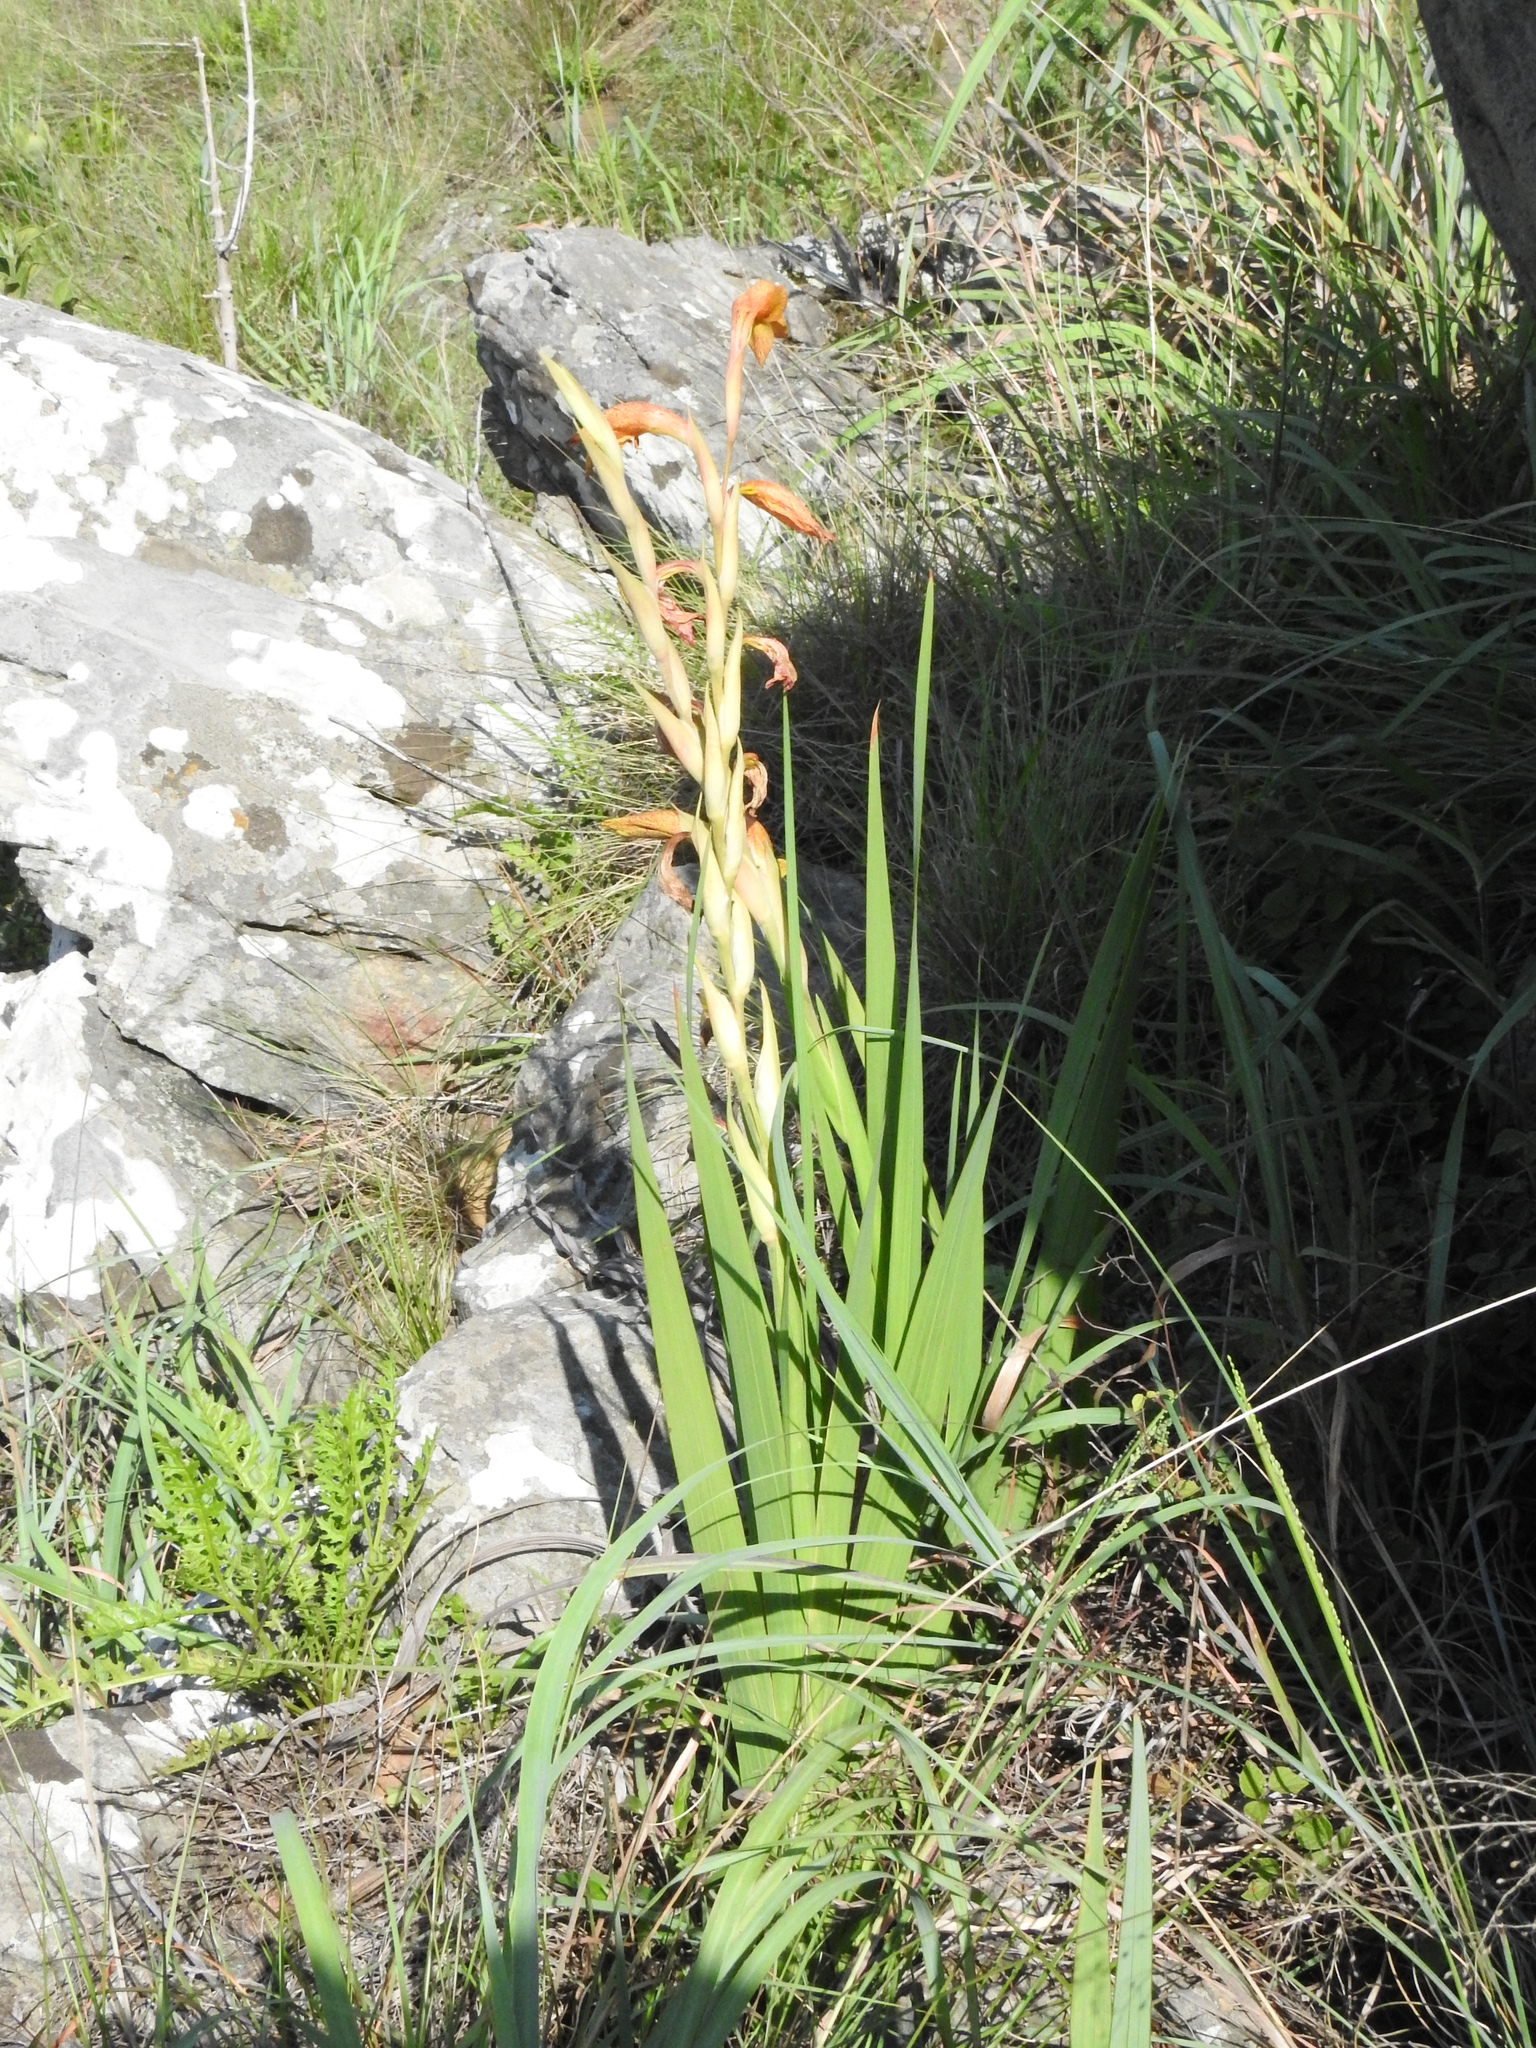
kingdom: Plantae
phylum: Tracheophyta
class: Liliopsida
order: Asparagales
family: Iridaceae
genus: Gladiolus
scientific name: Gladiolus dalenii
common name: Cornflag
